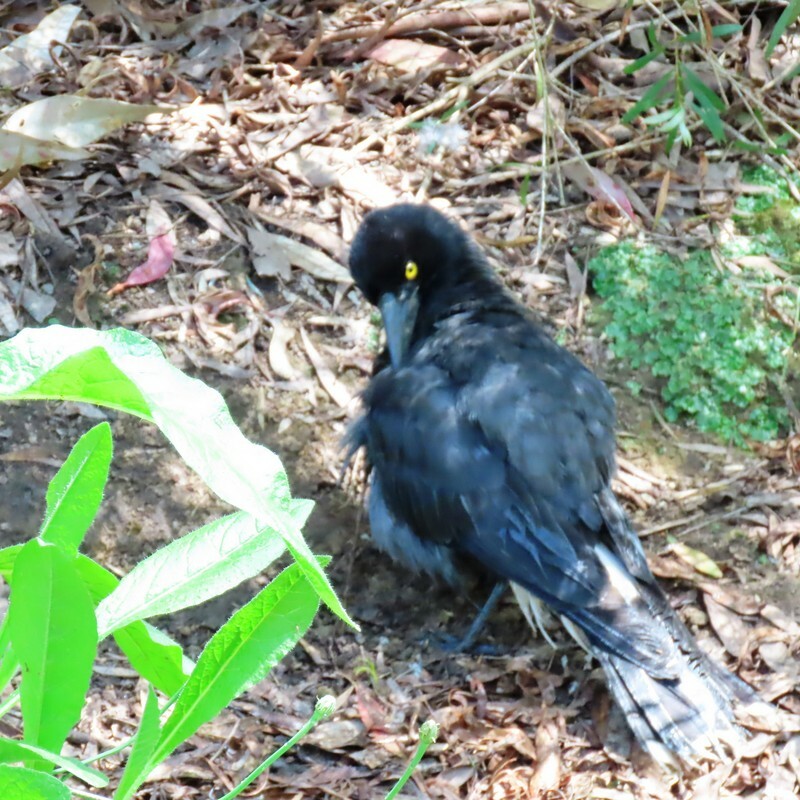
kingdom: Animalia
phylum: Chordata
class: Aves
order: Passeriformes
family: Cracticidae
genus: Strepera
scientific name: Strepera graculina
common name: Pied currawong
